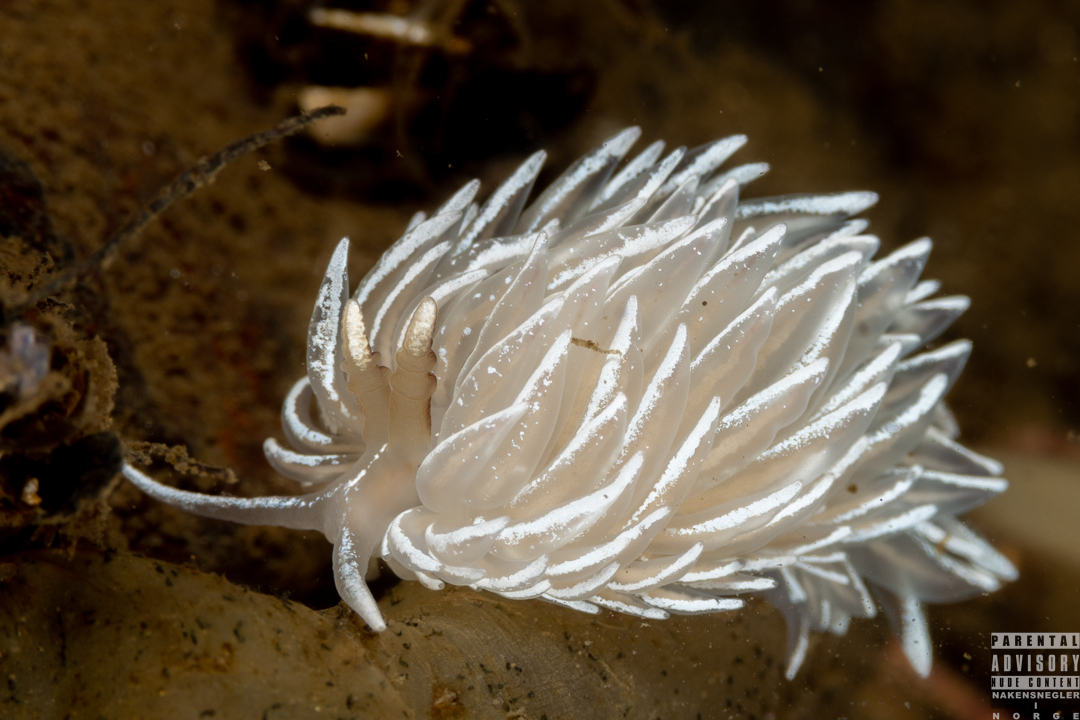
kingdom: Animalia
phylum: Mollusca
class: Gastropoda
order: Nudibranchia
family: Facelinidae
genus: Favorinus
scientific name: Favorinus blianus
